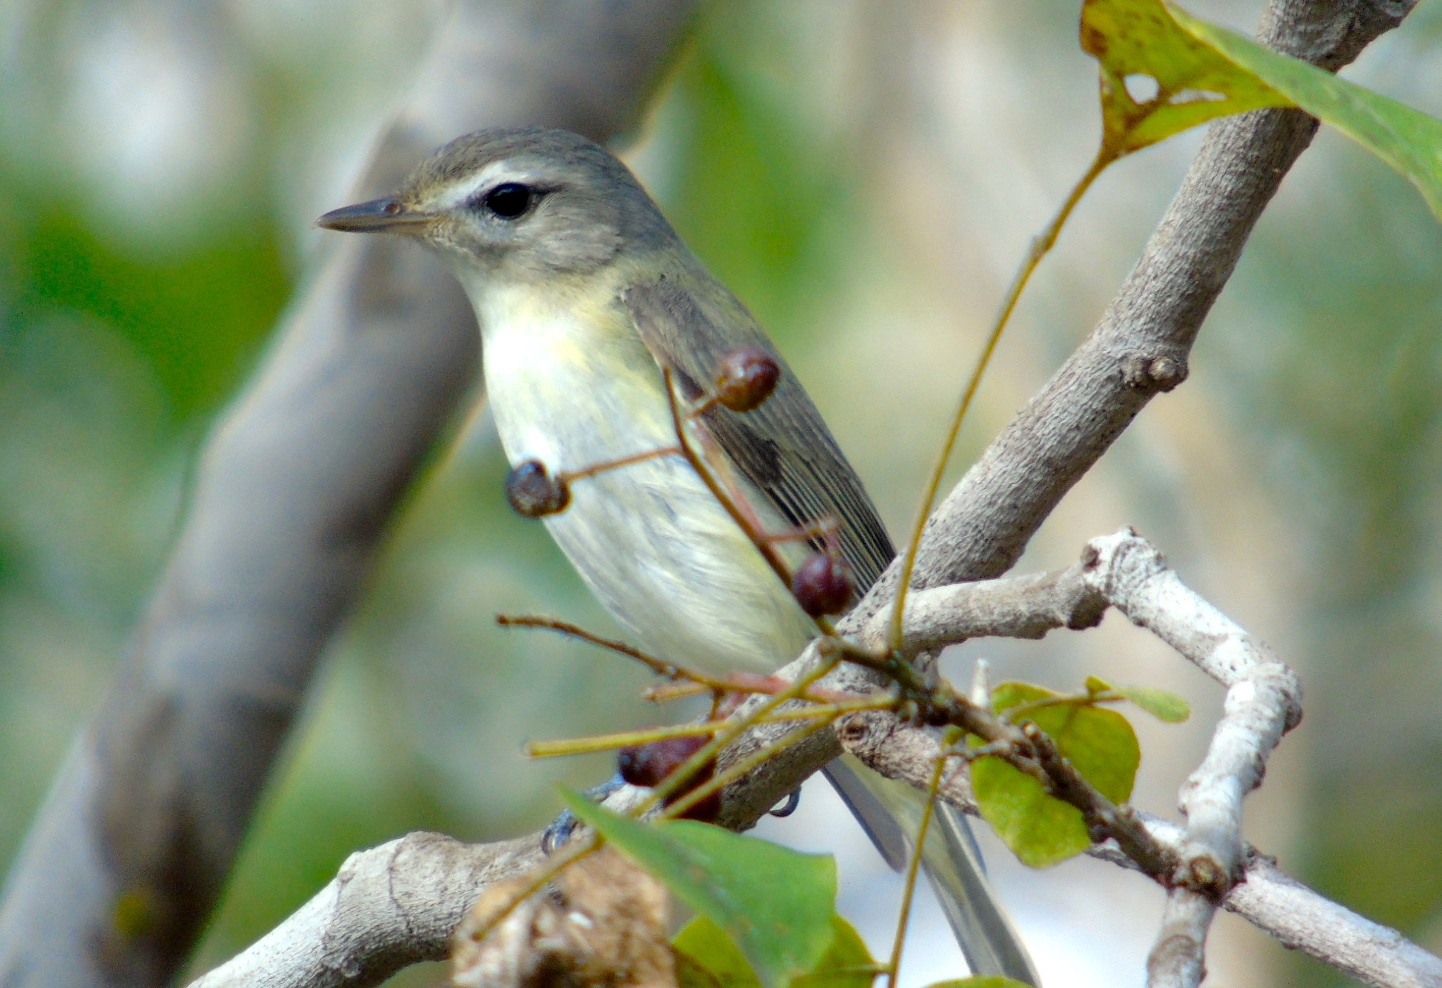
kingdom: Animalia
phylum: Chordata
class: Aves
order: Passeriformes
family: Vireonidae
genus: Vireo
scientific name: Vireo gilvus
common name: Warbling vireo
